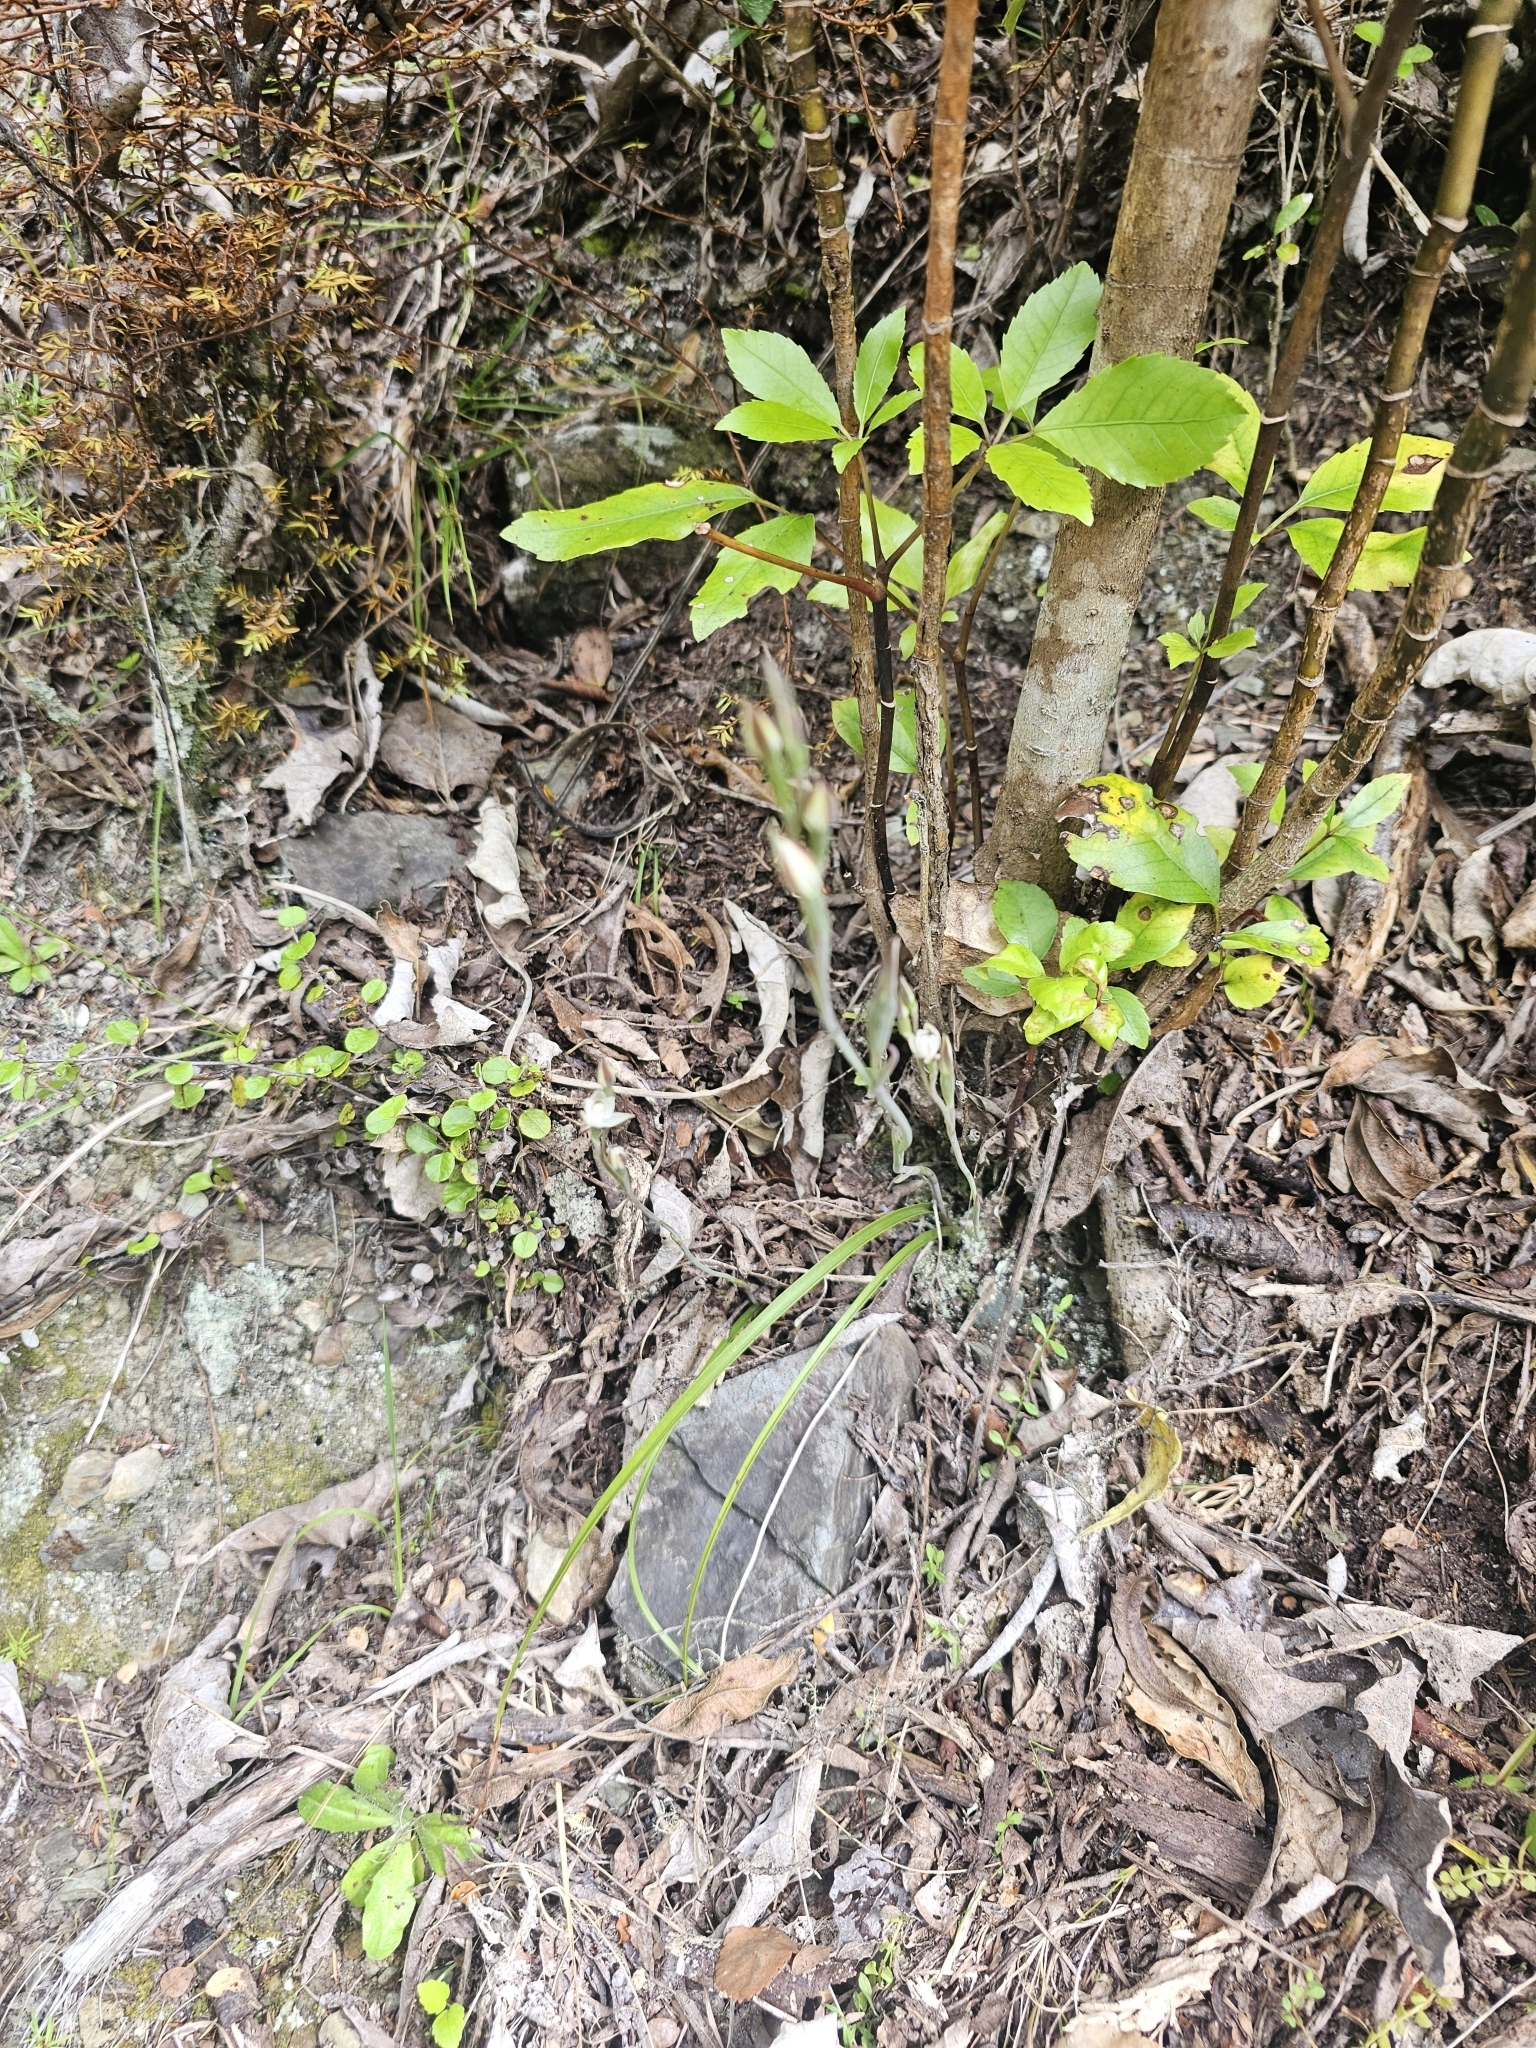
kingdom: Plantae
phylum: Tracheophyta
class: Liliopsida
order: Asparagales
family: Orchidaceae
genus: Thelymitra
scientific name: Thelymitra longifolia
